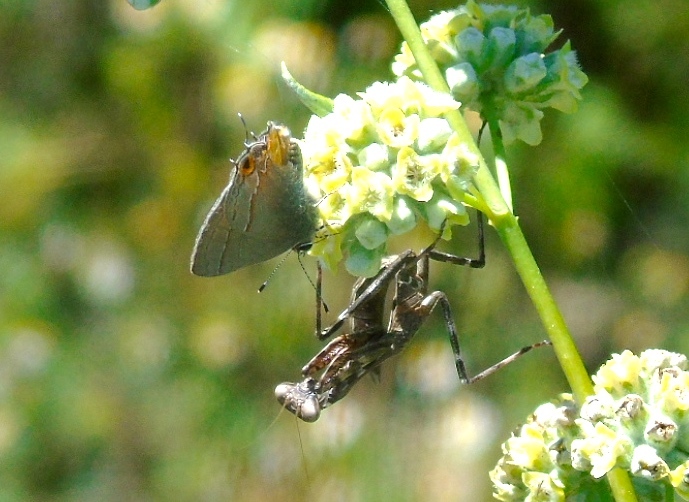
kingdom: Animalia
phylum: Arthropoda
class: Insecta
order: Lepidoptera
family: Lycaenidae
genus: Electrostrymon
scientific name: Electrostrymon endymion
